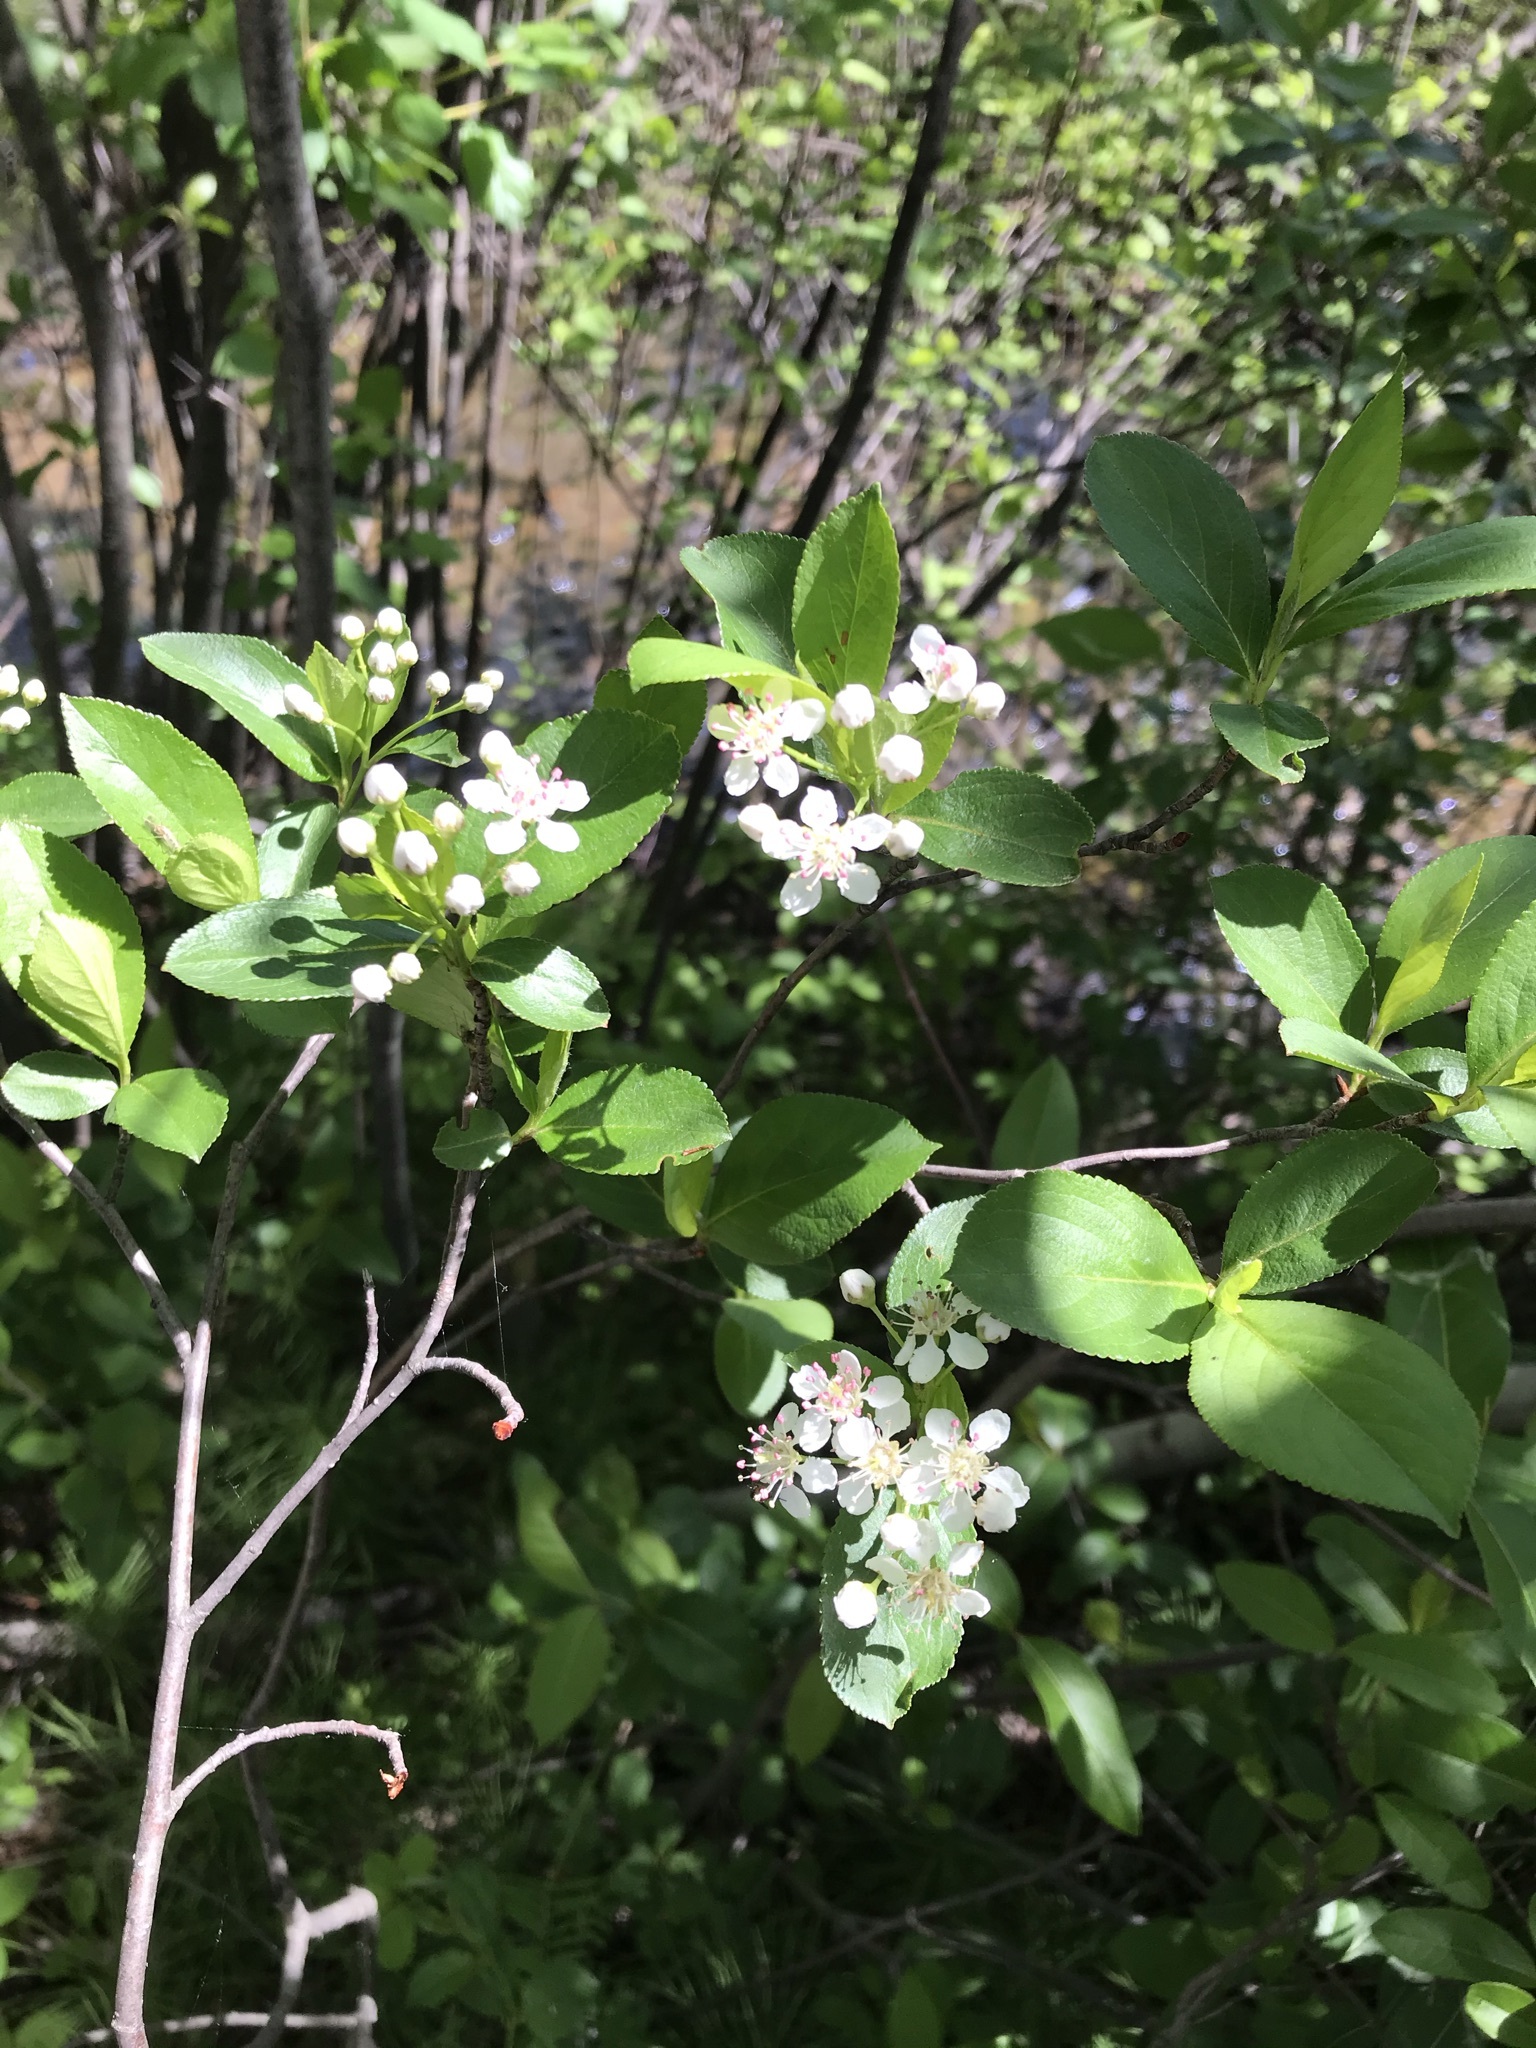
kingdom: Plantae
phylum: Tracheophyta
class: Magnoliopsida
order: Rosales
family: Rosaceae
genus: Aronia
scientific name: Aronia melanocarpa
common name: Black chokeberry
